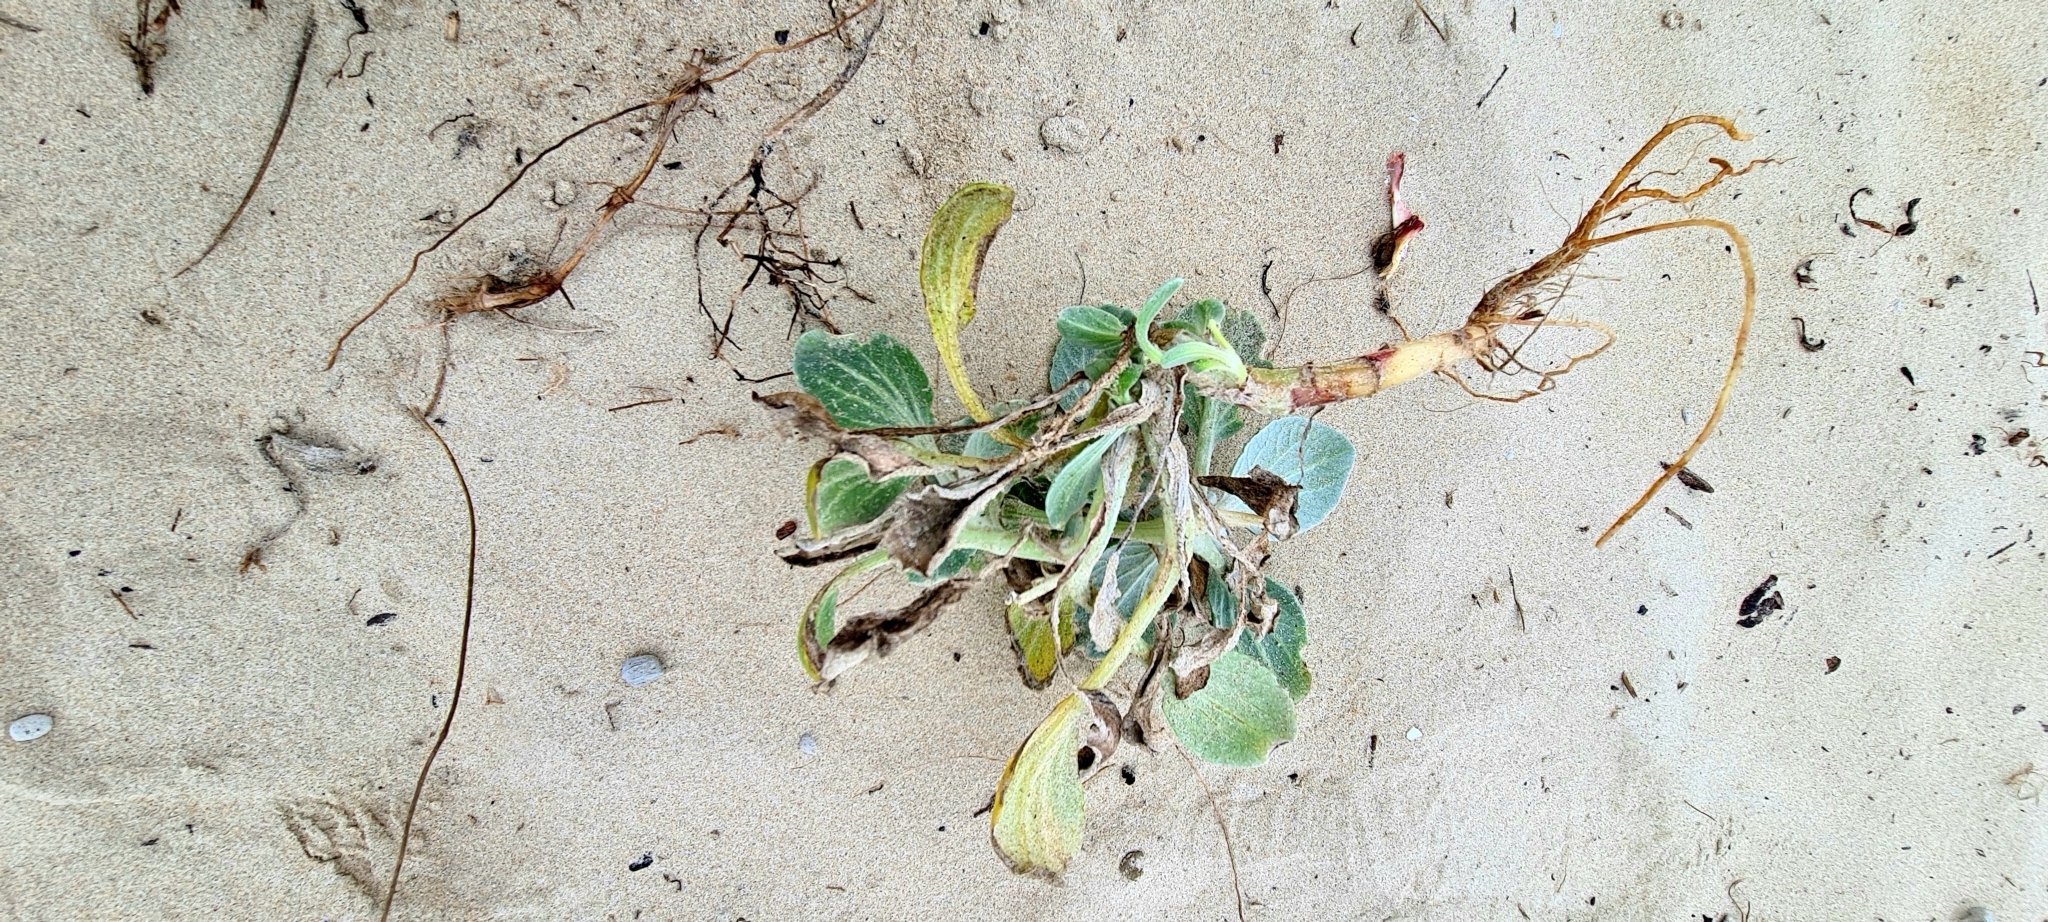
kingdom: Plantae
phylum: Tracheophyta
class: Magnoliopsida
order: Asterales
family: Asteraceae
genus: Arctotheca
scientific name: Arctotheca populifolia
